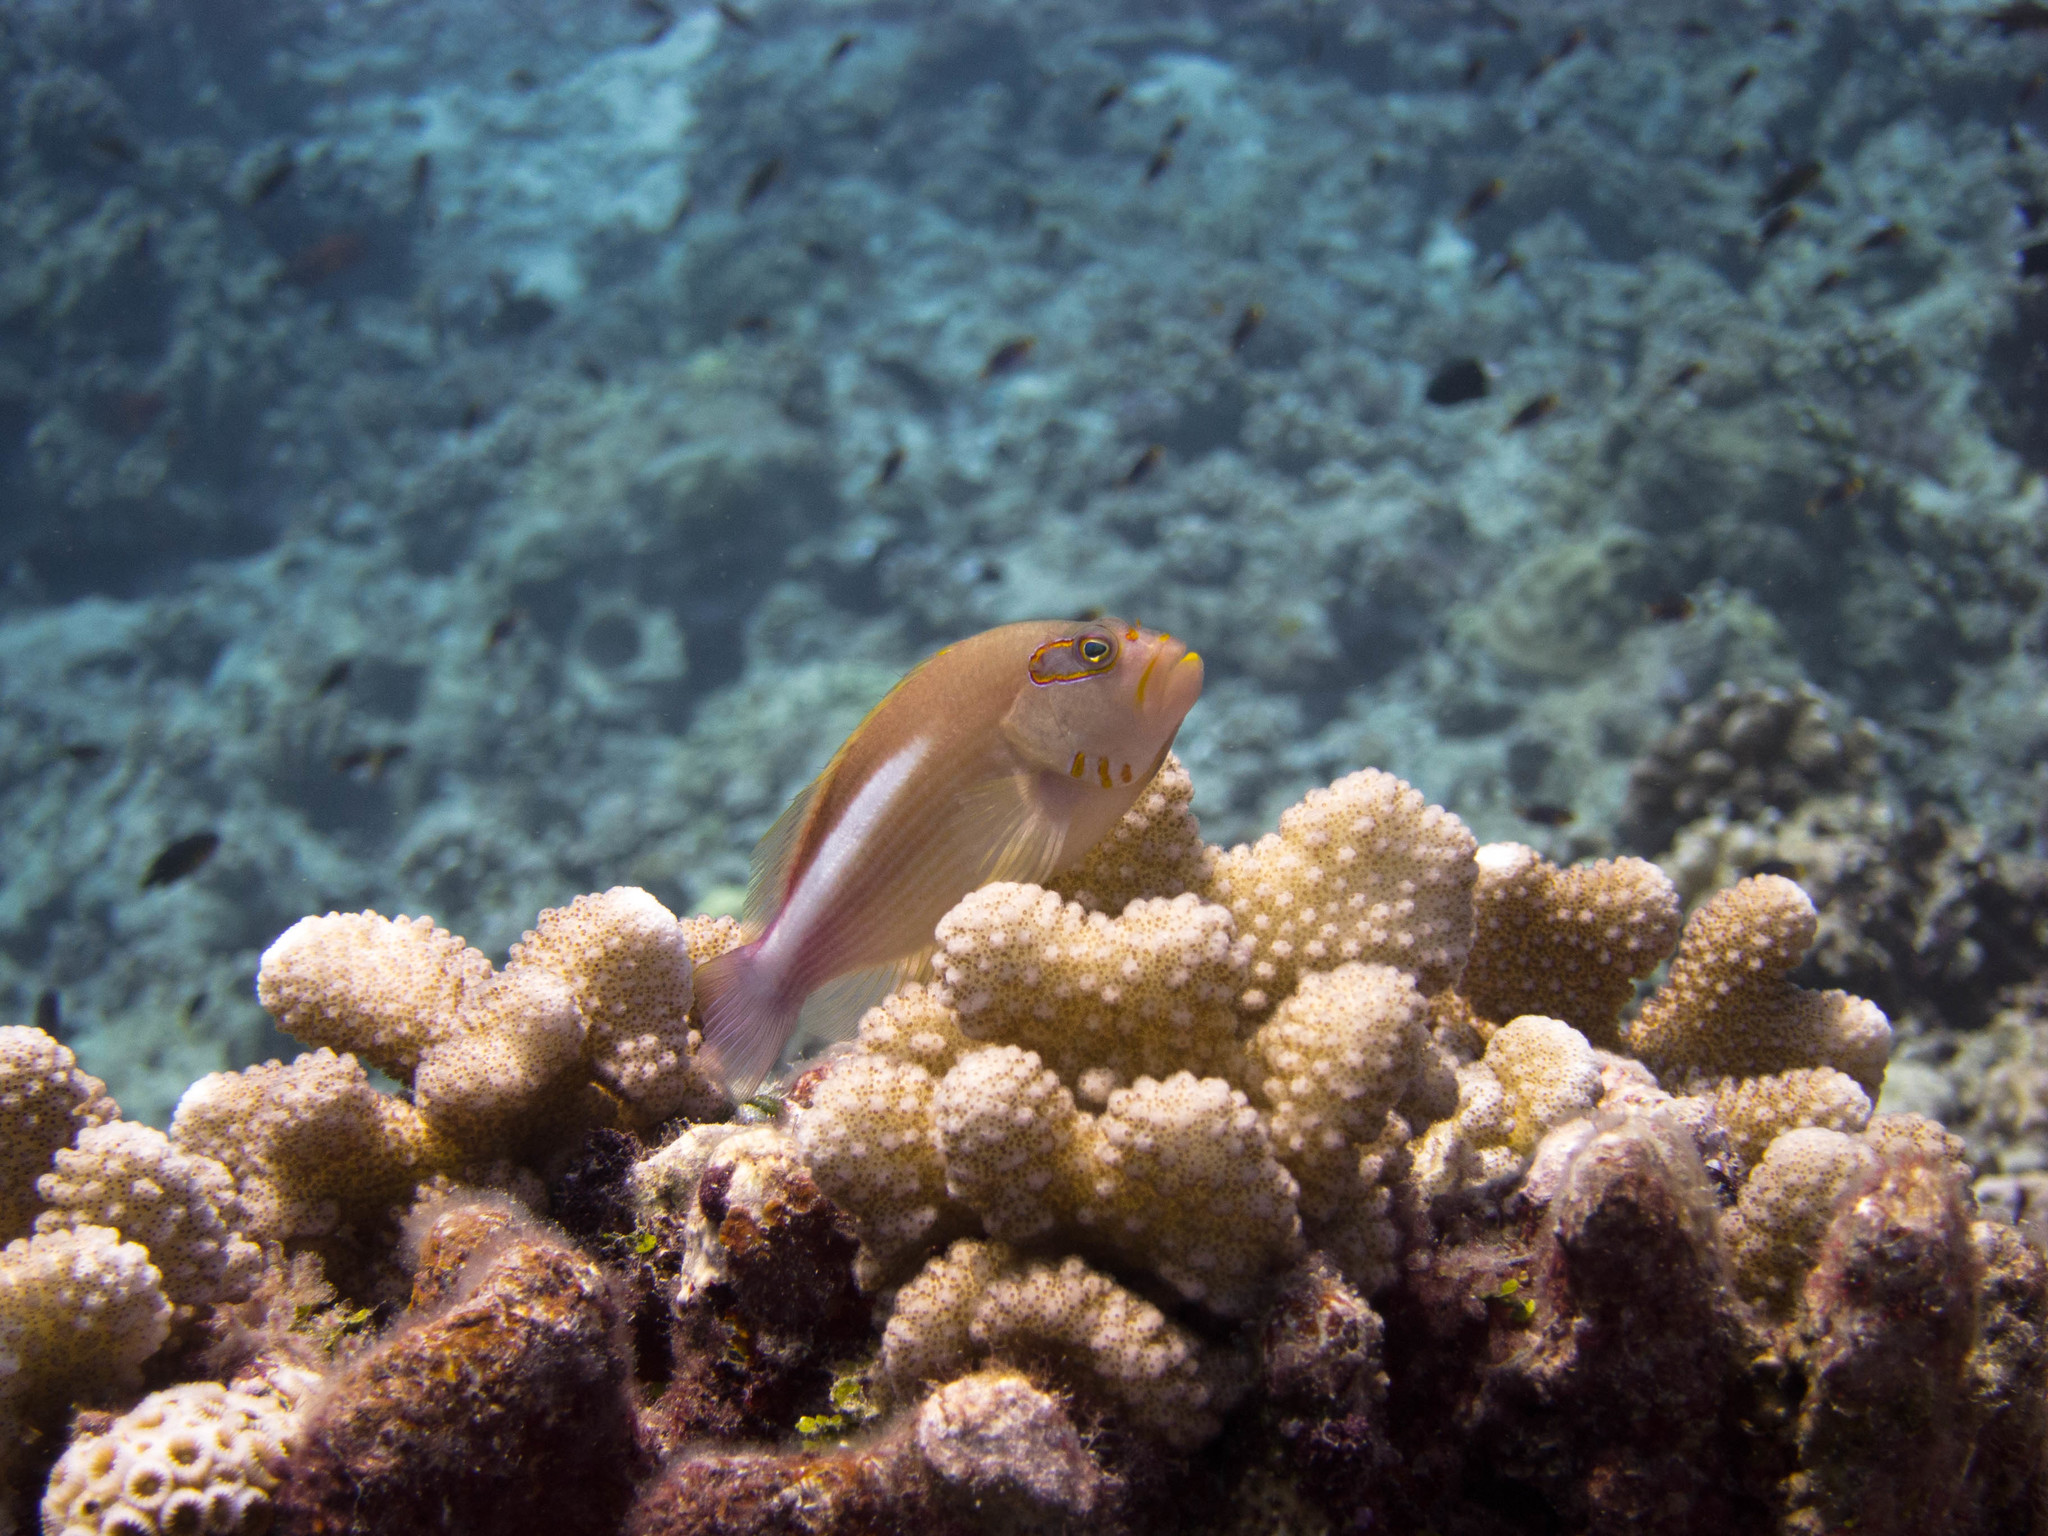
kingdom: Animalia
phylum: Chordata
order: Perciformes
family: Cirrhitidae
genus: Paracirrhites
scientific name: Paracirrhites arcatus
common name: Arc-eye hawkfish
